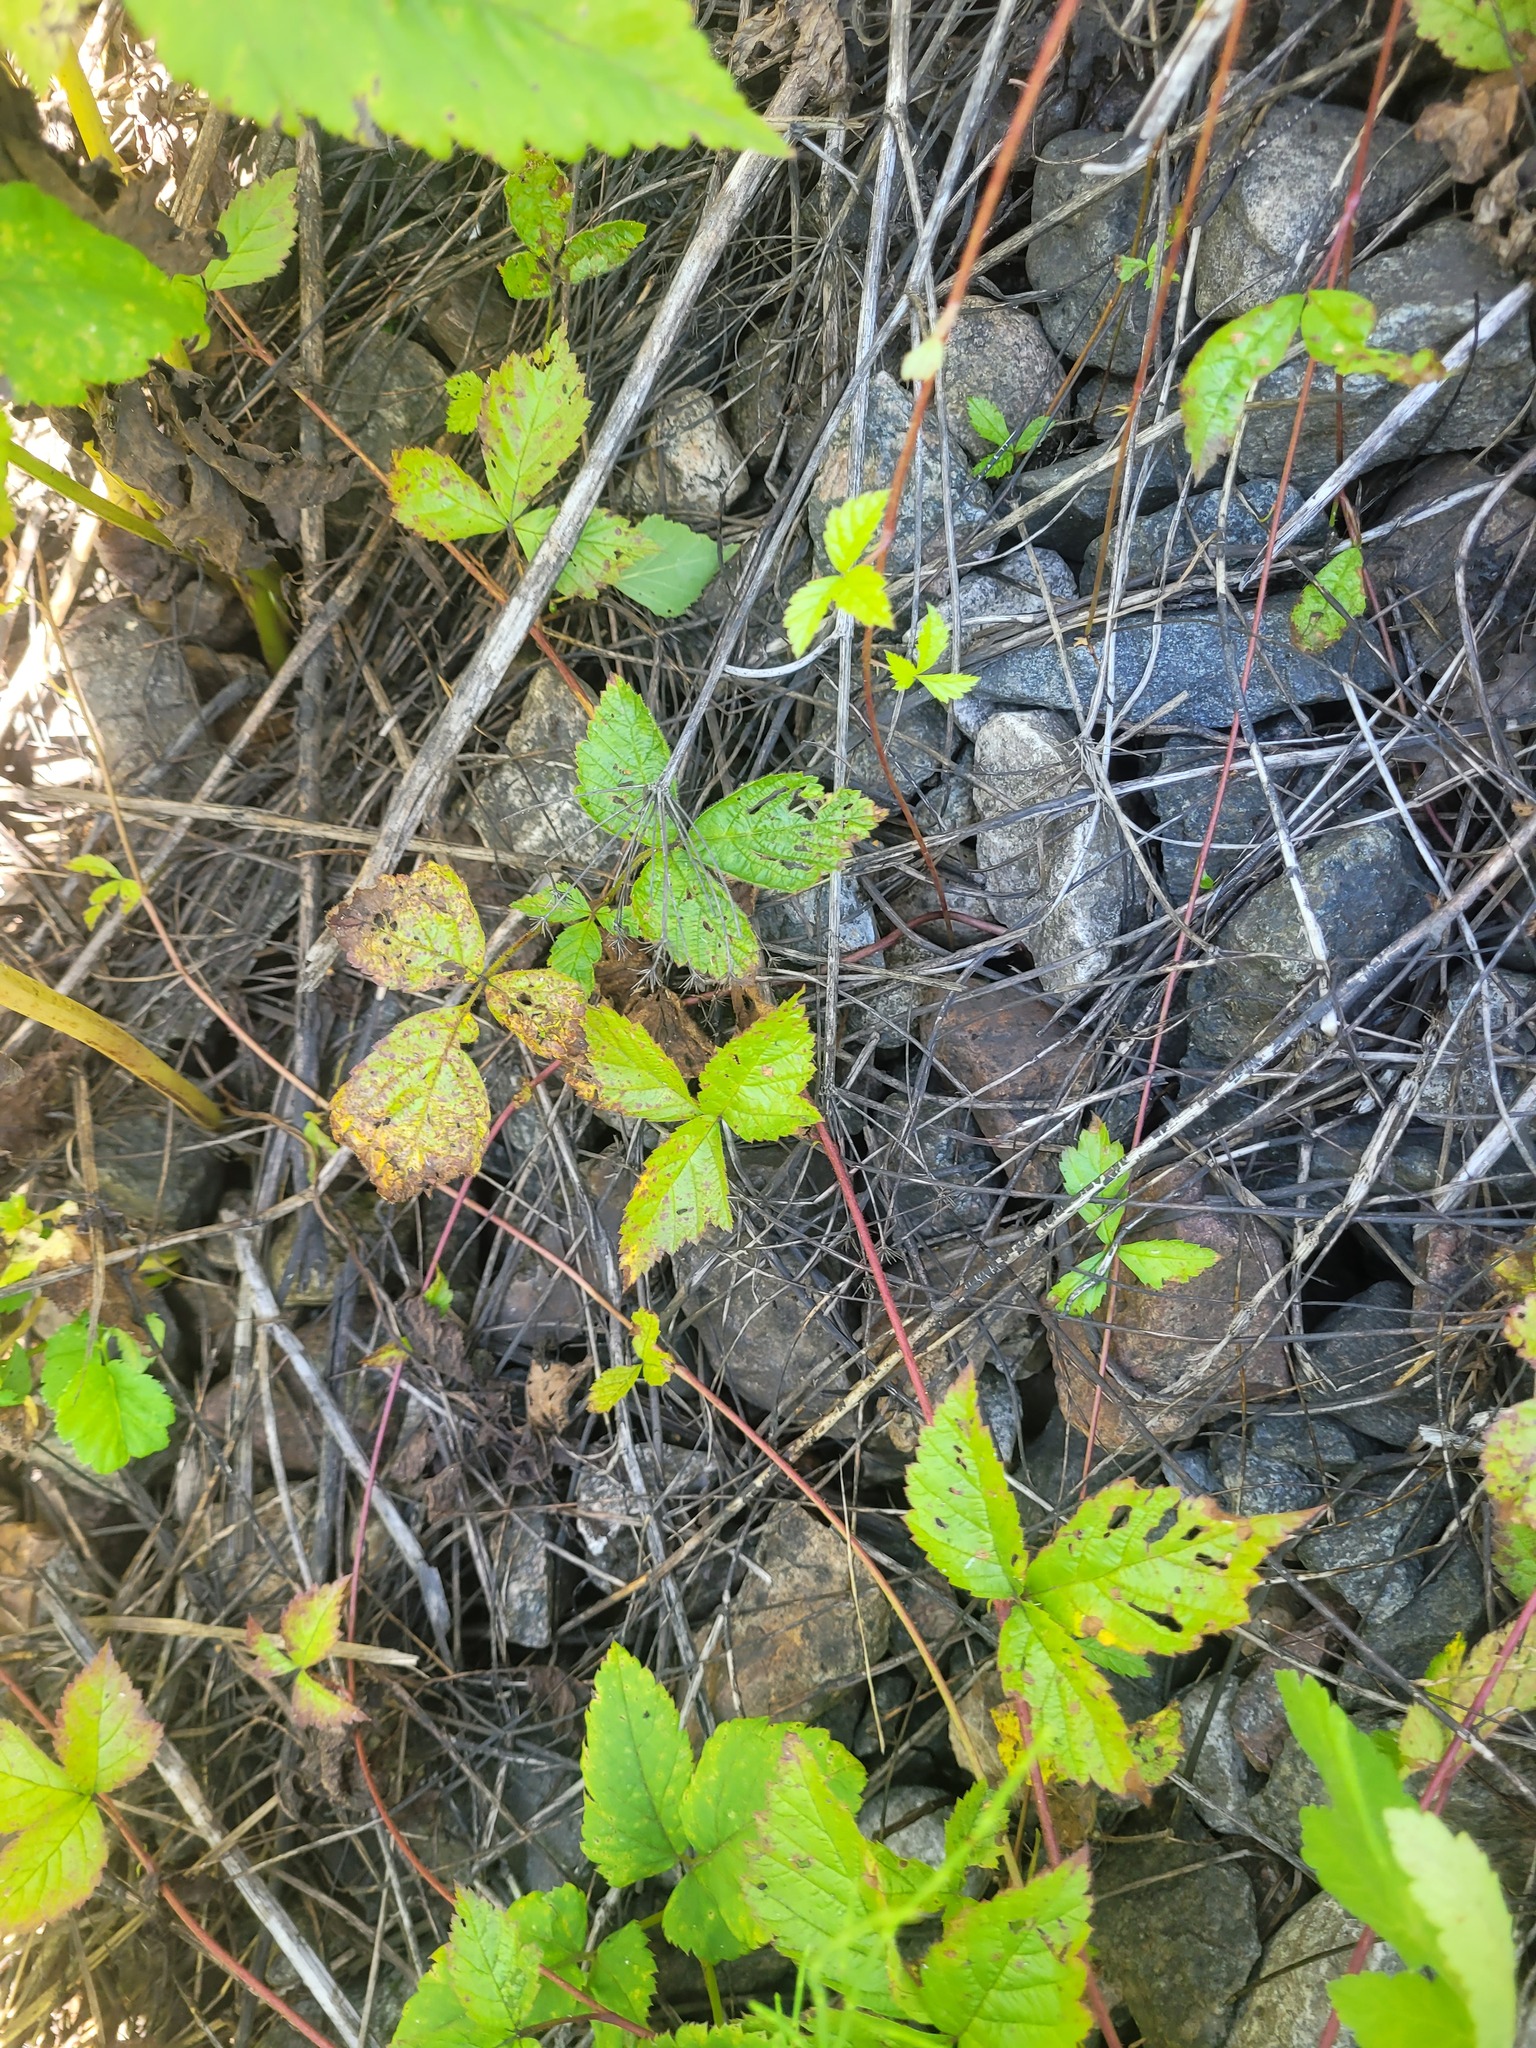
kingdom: Plantae
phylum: Tracheophyta
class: Magnoliopsida
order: Rosales
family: Rosaceae
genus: Rubus
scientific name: Rubus saxatilis
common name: Stone bramble
